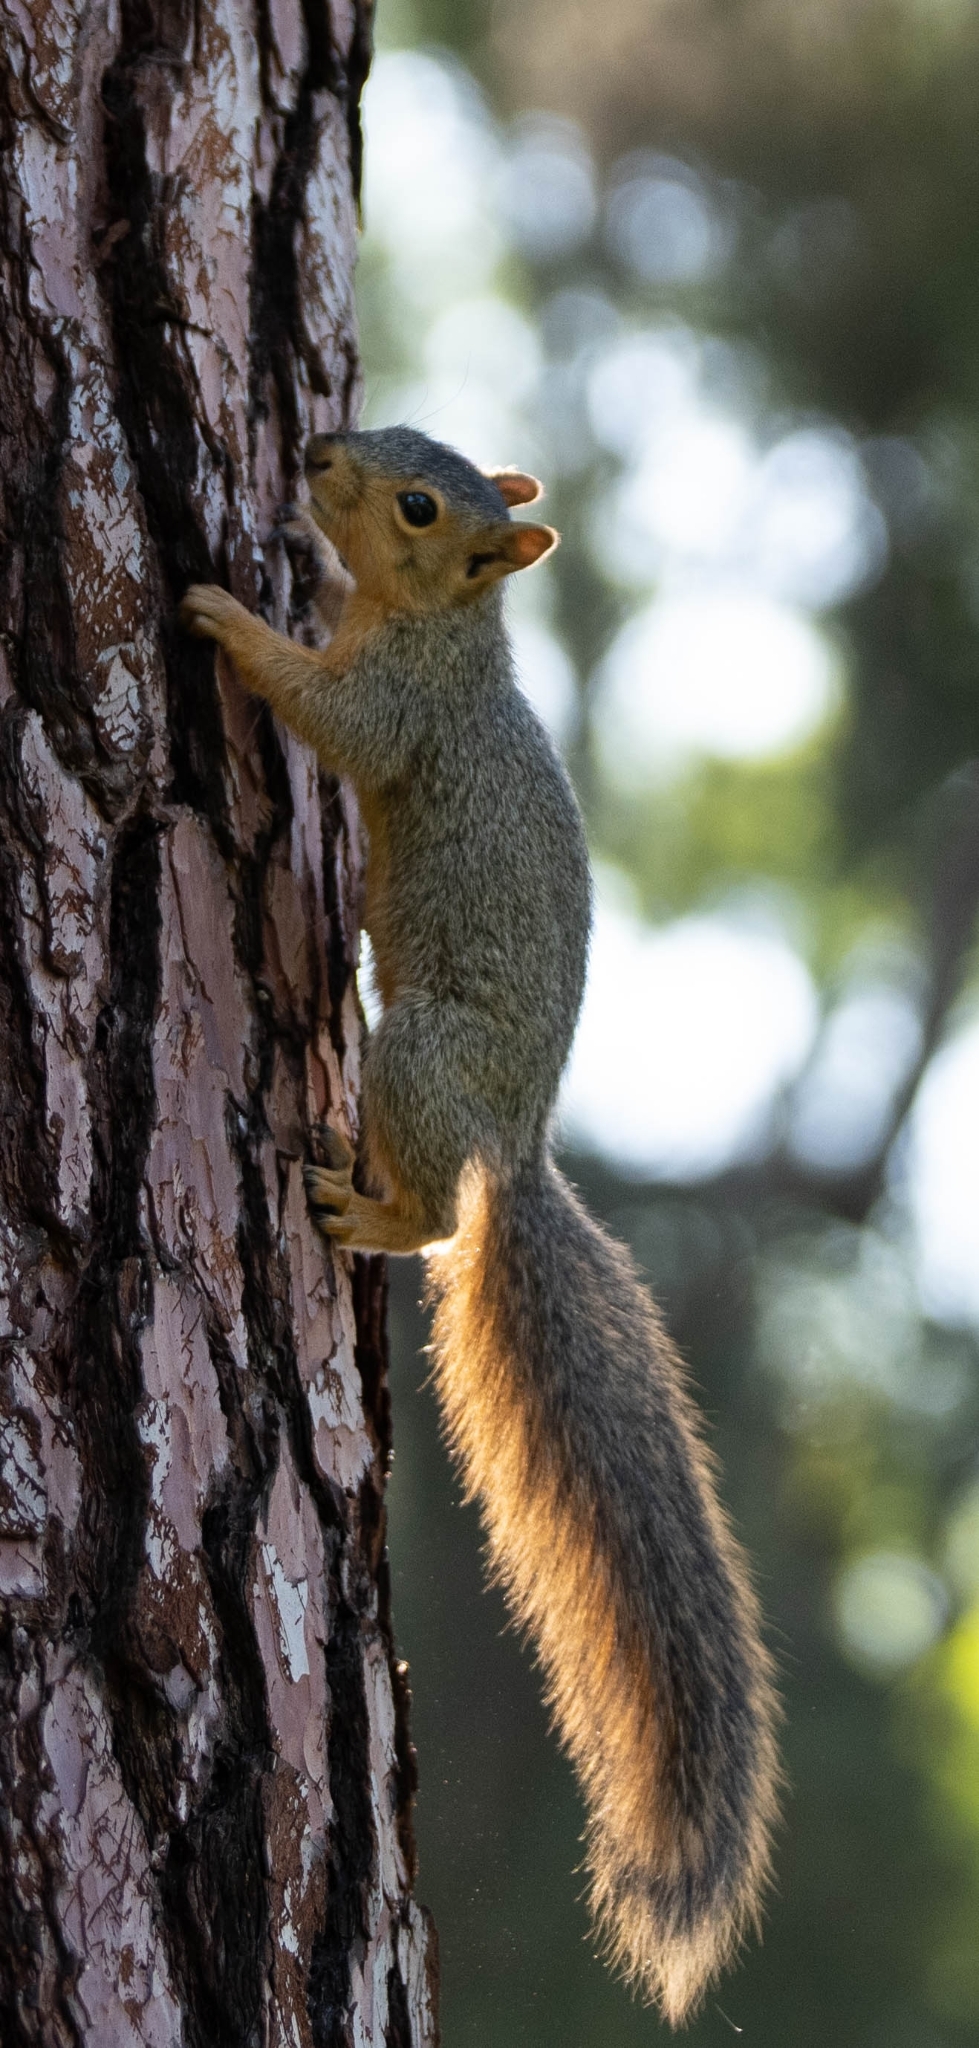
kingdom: Animalia
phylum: Chordata
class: Mammalia
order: Rodentia
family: Sciuridae
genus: Sciurus
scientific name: Sciurus niger
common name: Fox squirrel
